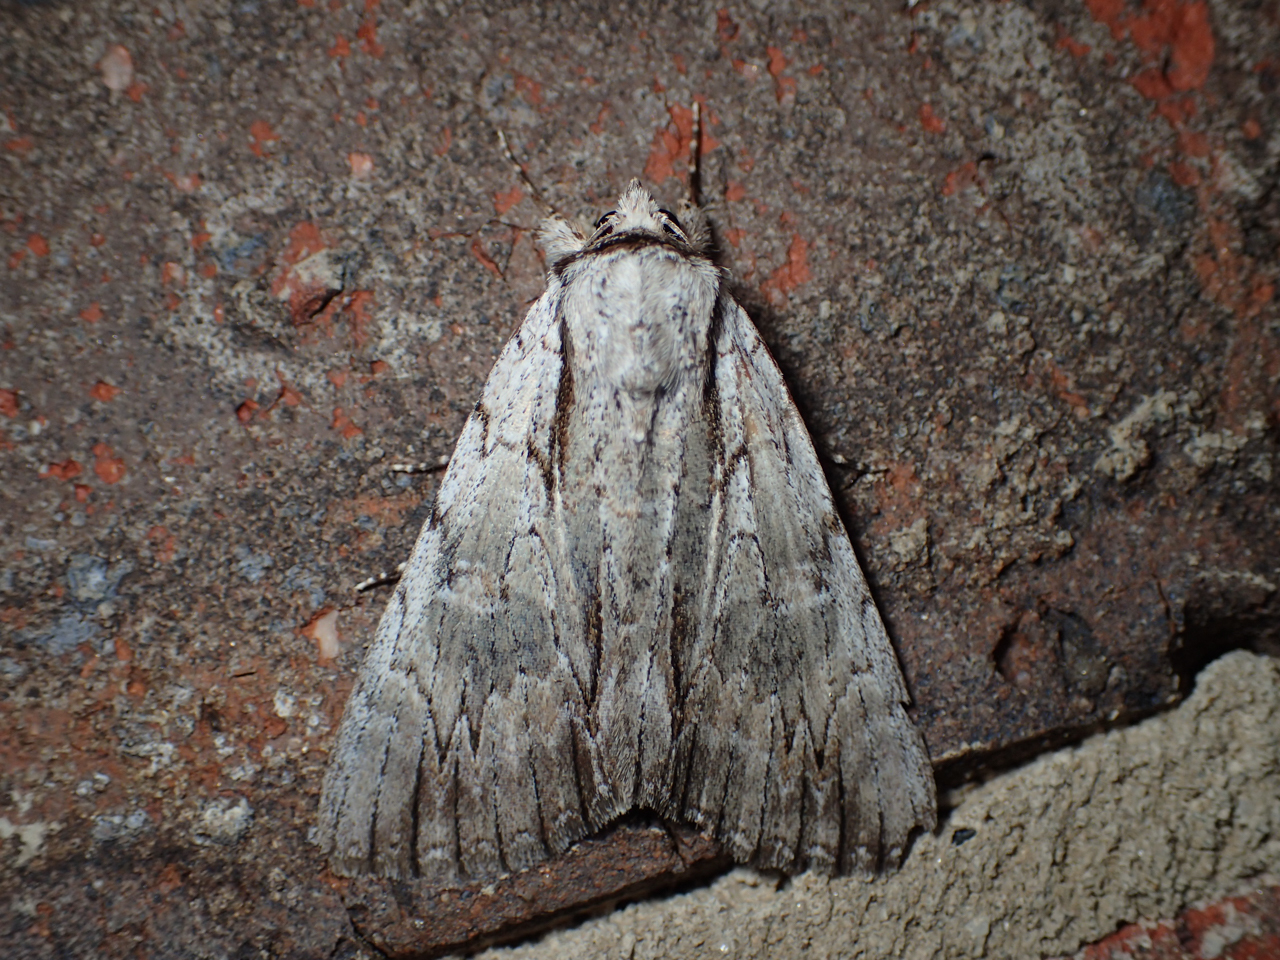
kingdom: Animalia
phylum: Arthropoda
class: Insecta
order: Lepidoptera
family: Erebidae
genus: Catocala
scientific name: Catocala clintonii
